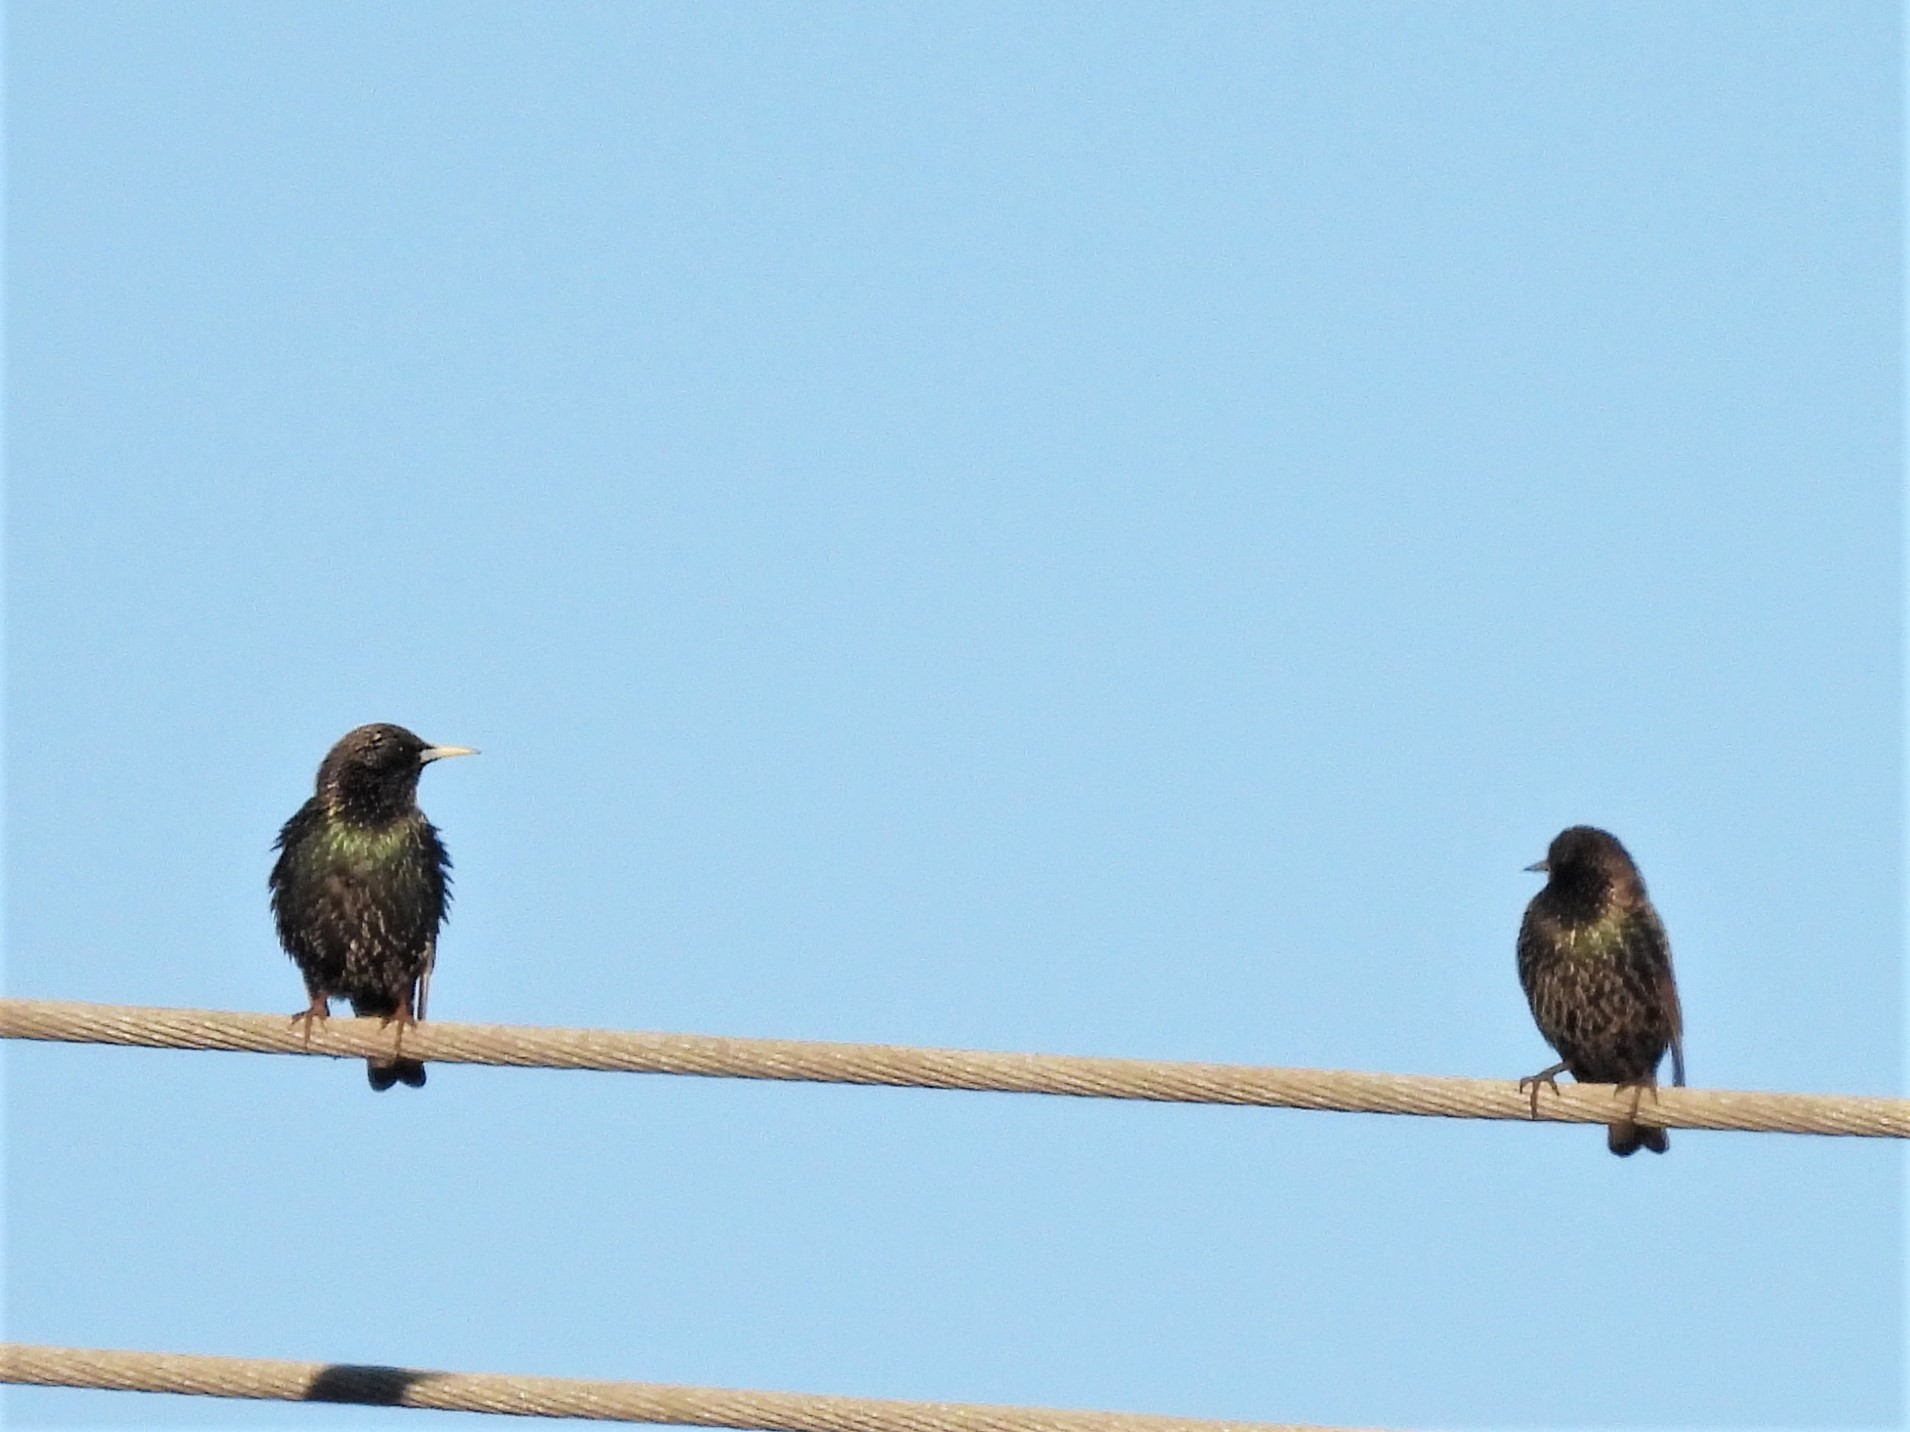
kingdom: Animalia
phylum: Chordata
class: Aves
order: Passeriformes
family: Sturnidae
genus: Sturnus
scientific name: Sturnus vulgaris
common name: Common starling
